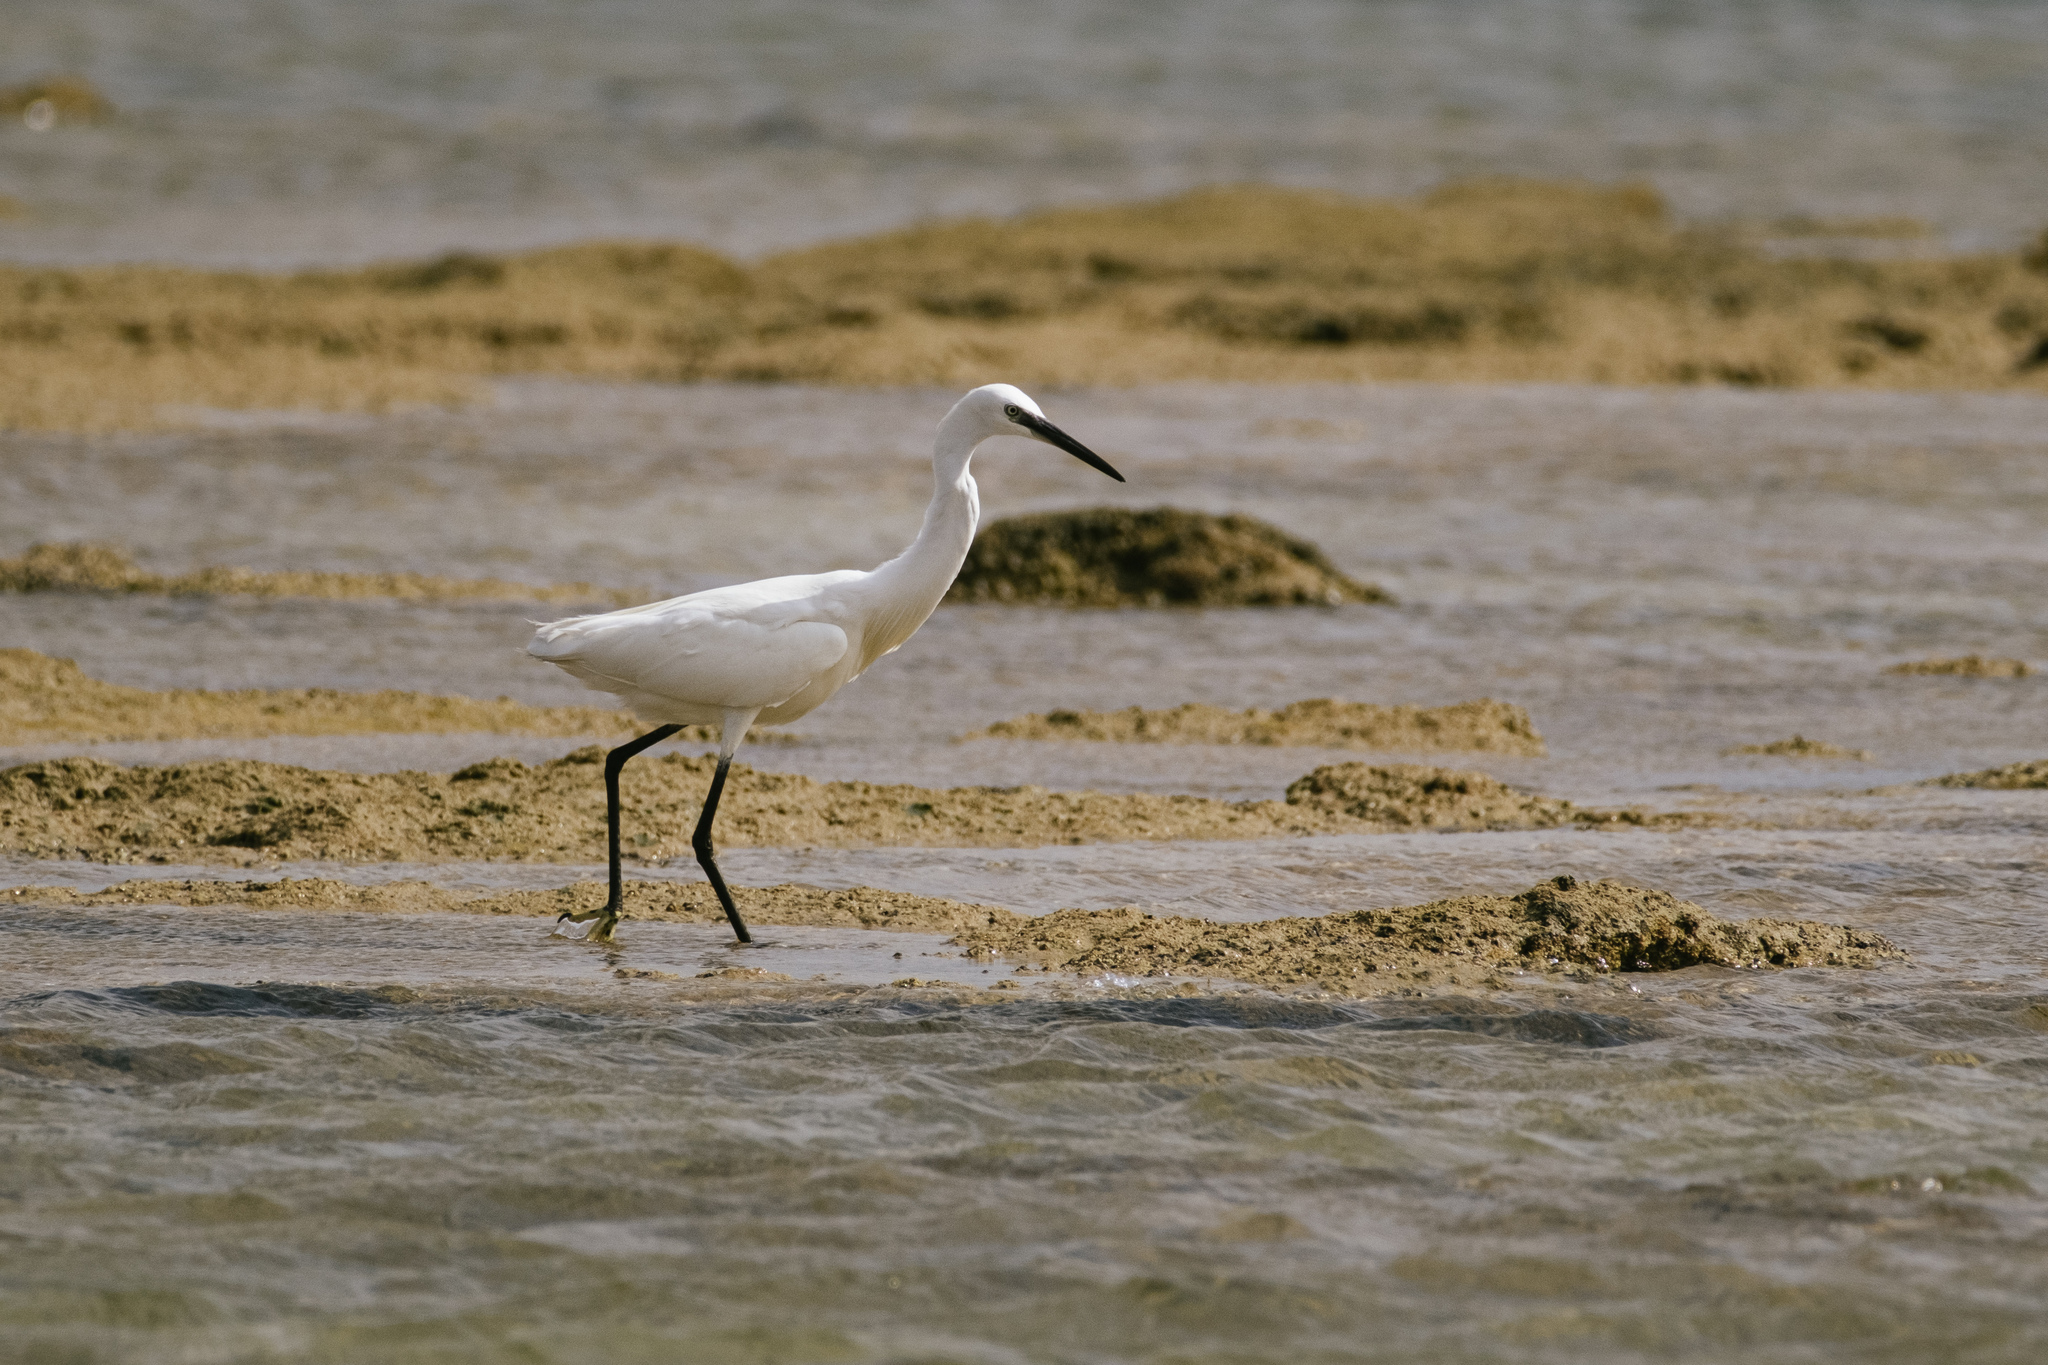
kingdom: Animalia
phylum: Chordata
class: Aves
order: Pelecaniformes
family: Ardeidae
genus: Egretta
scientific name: Egretta garzetta
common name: Little egret
